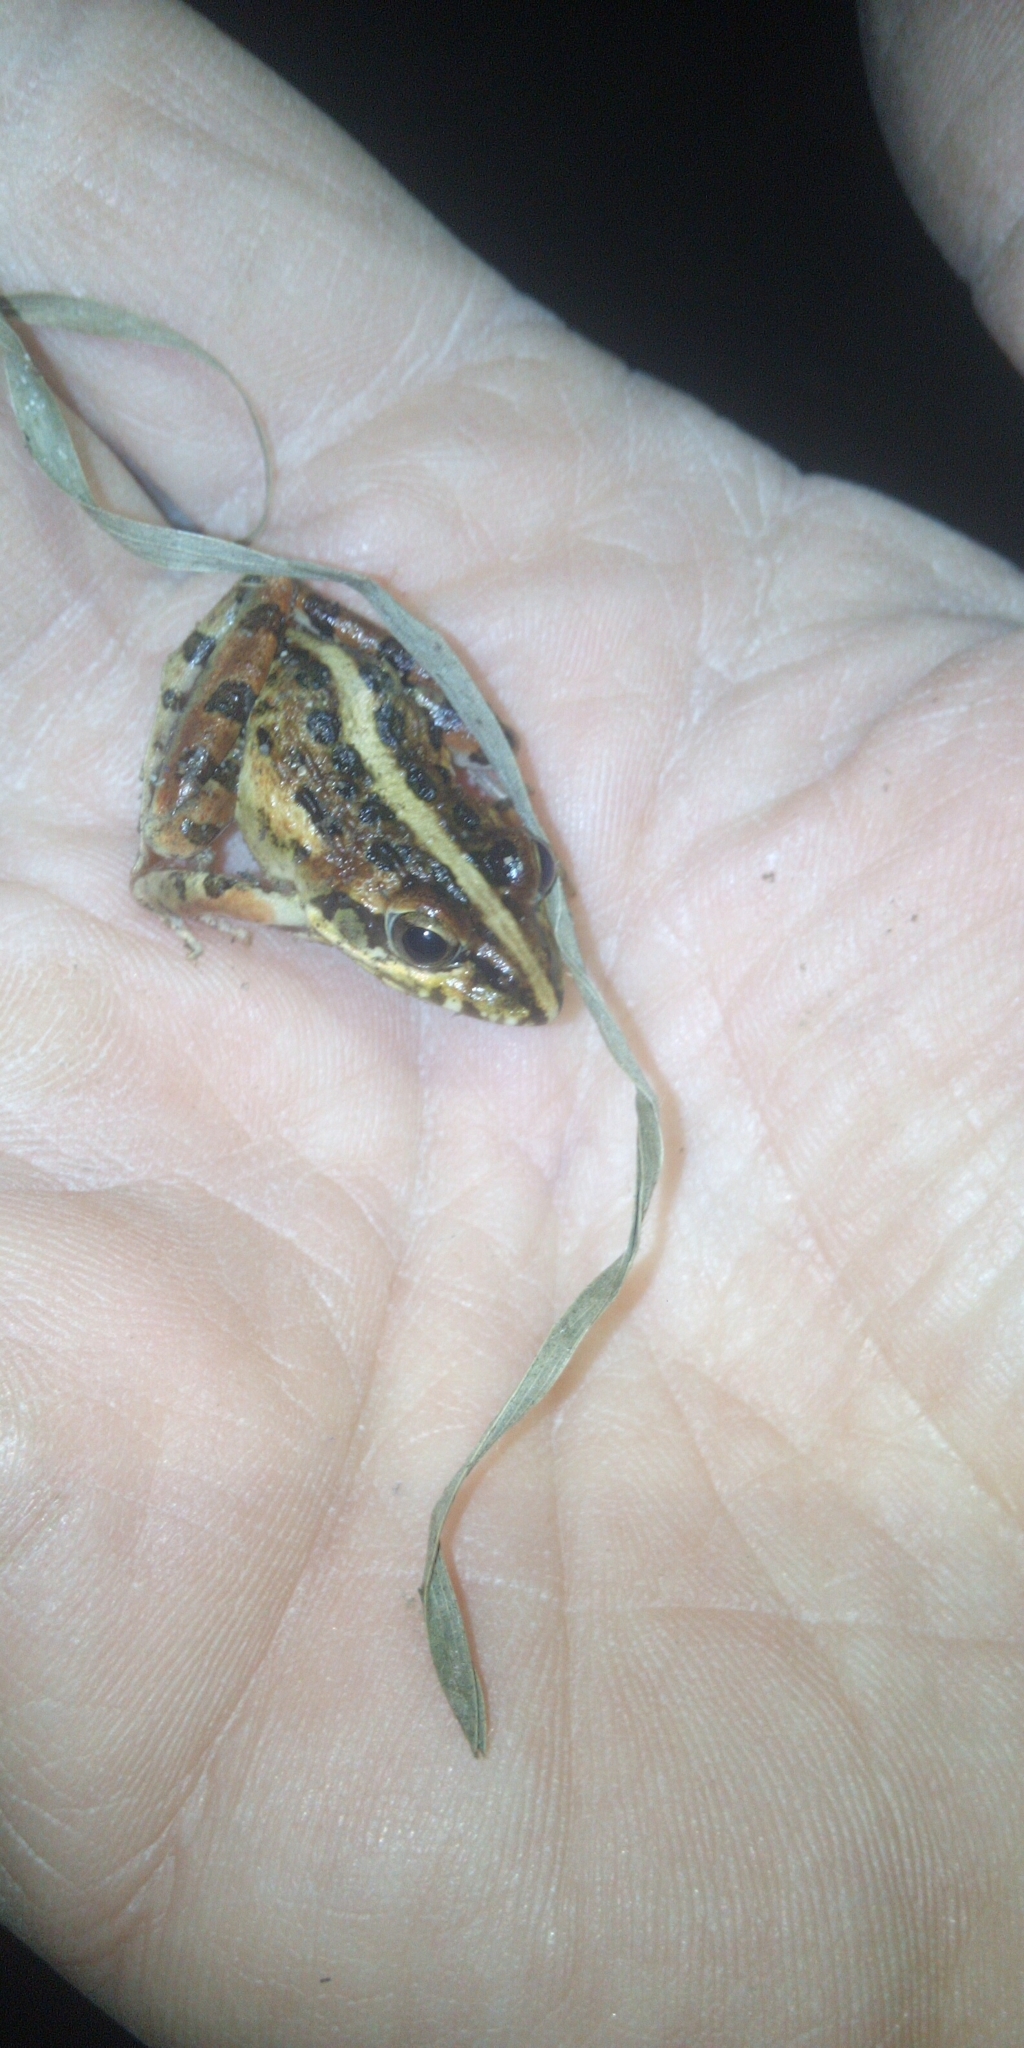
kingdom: Animalia
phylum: Chordata
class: Amphibia
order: Anura
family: Pyxicephalidae
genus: Strongylopus
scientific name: Strongylopus grayii
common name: Gray's stream frog
